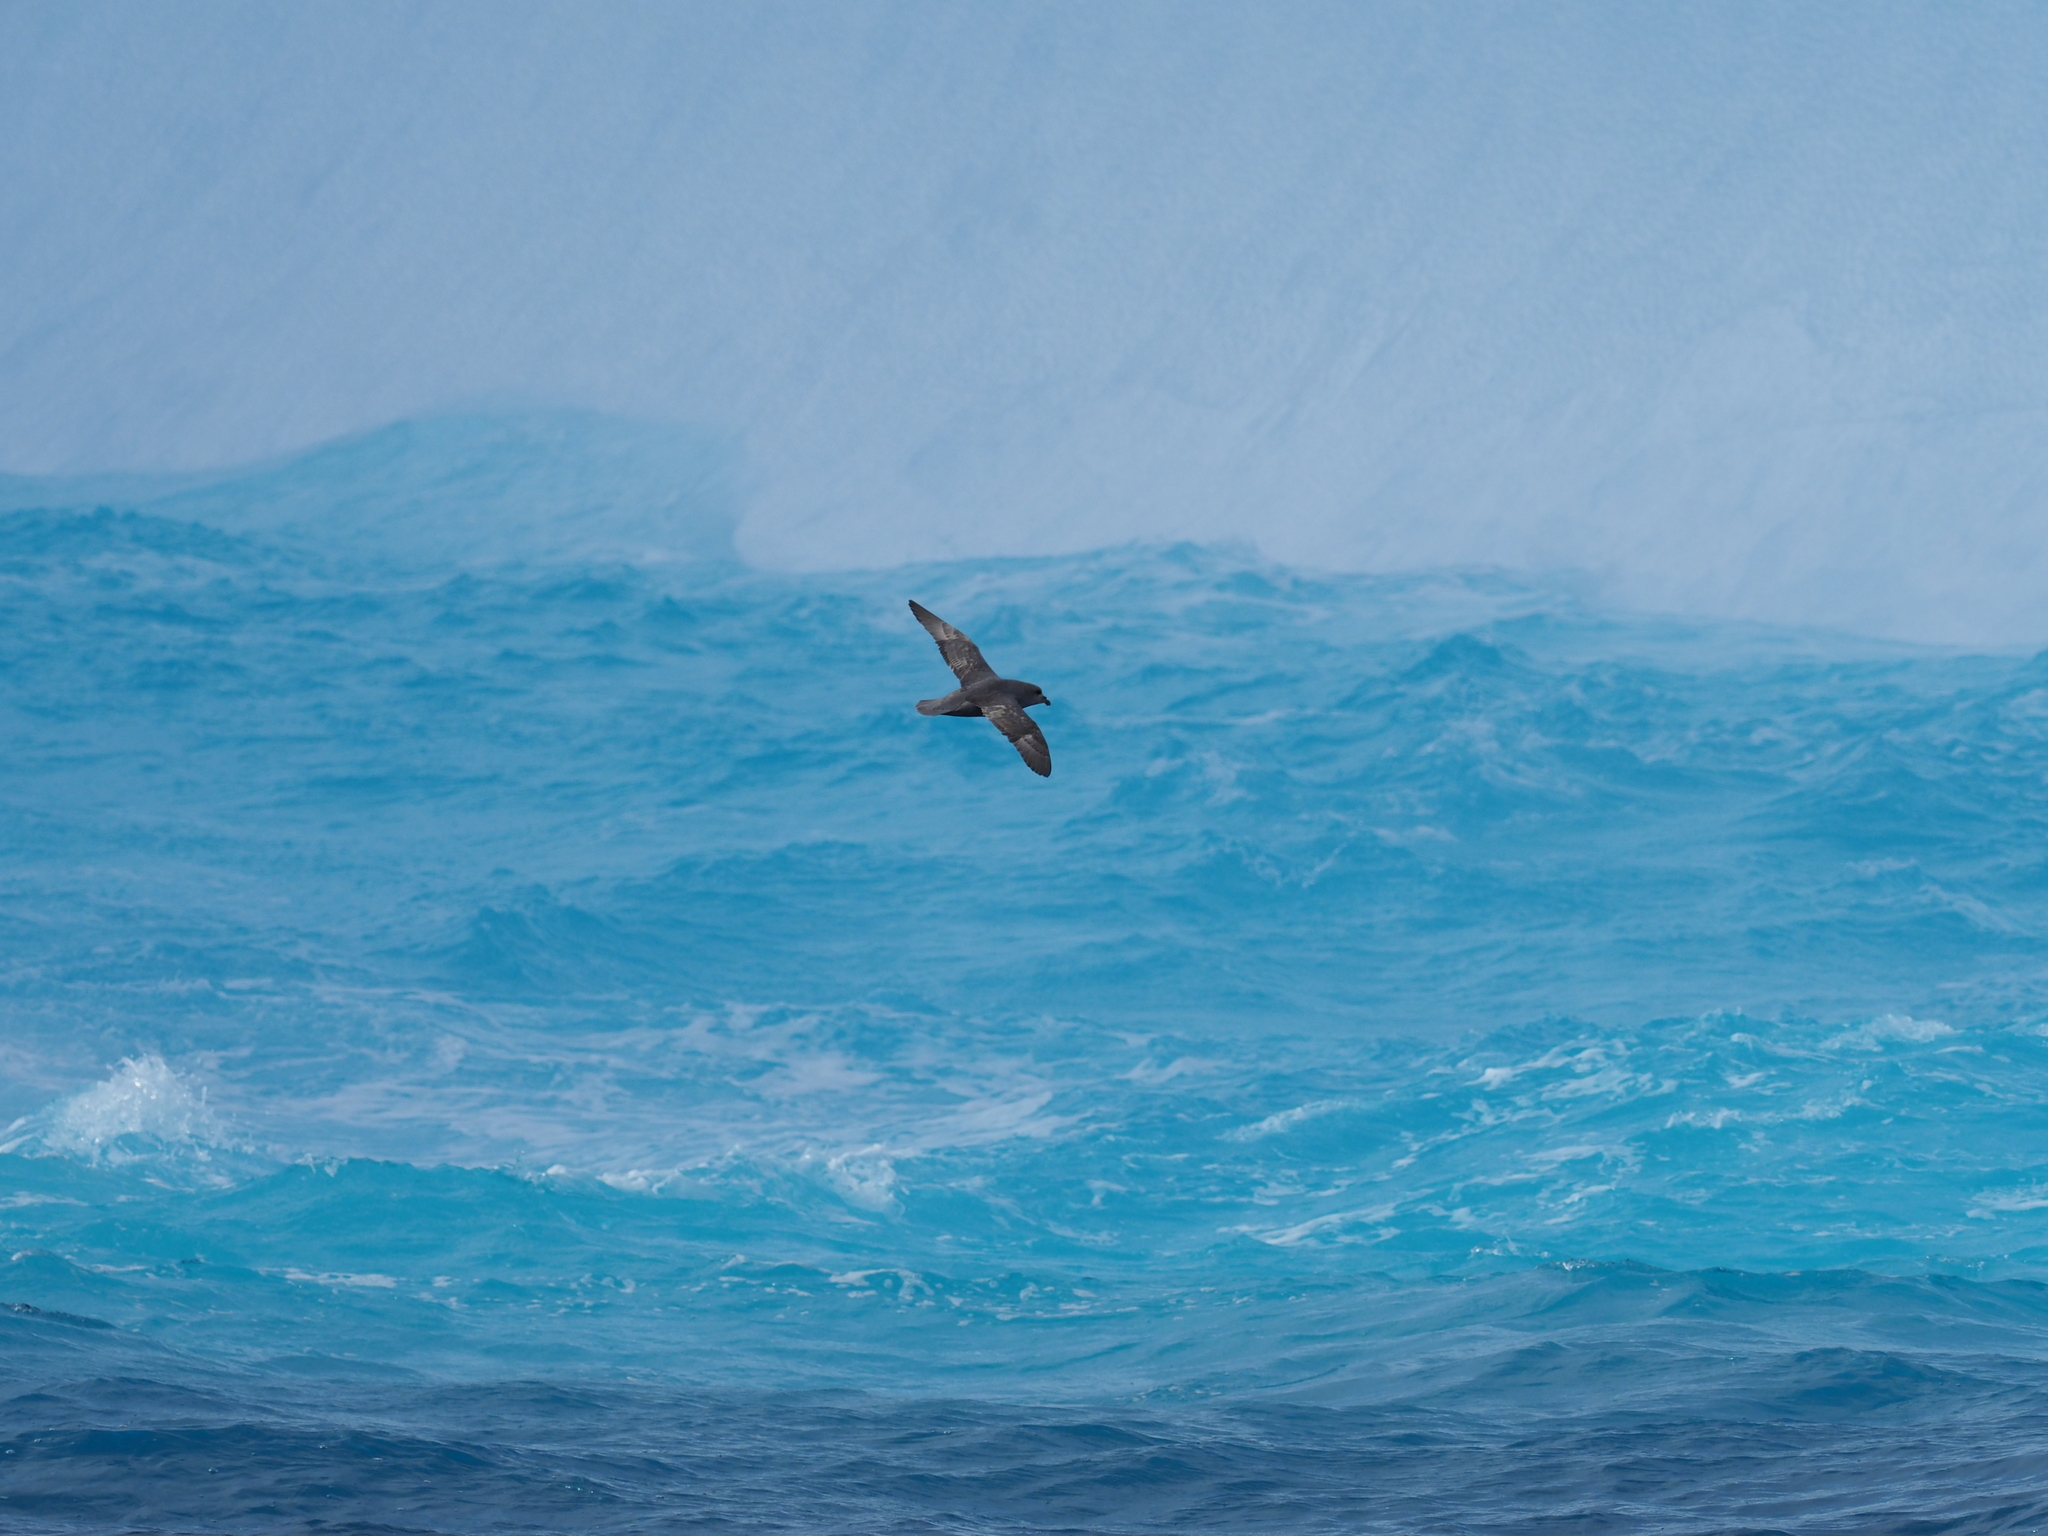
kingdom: Animalia
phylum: Chordata
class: Aves
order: Procellariiformes
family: Procellariidae
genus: Fulmarus
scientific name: Fulmarus glacialis
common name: Northern fulmar
